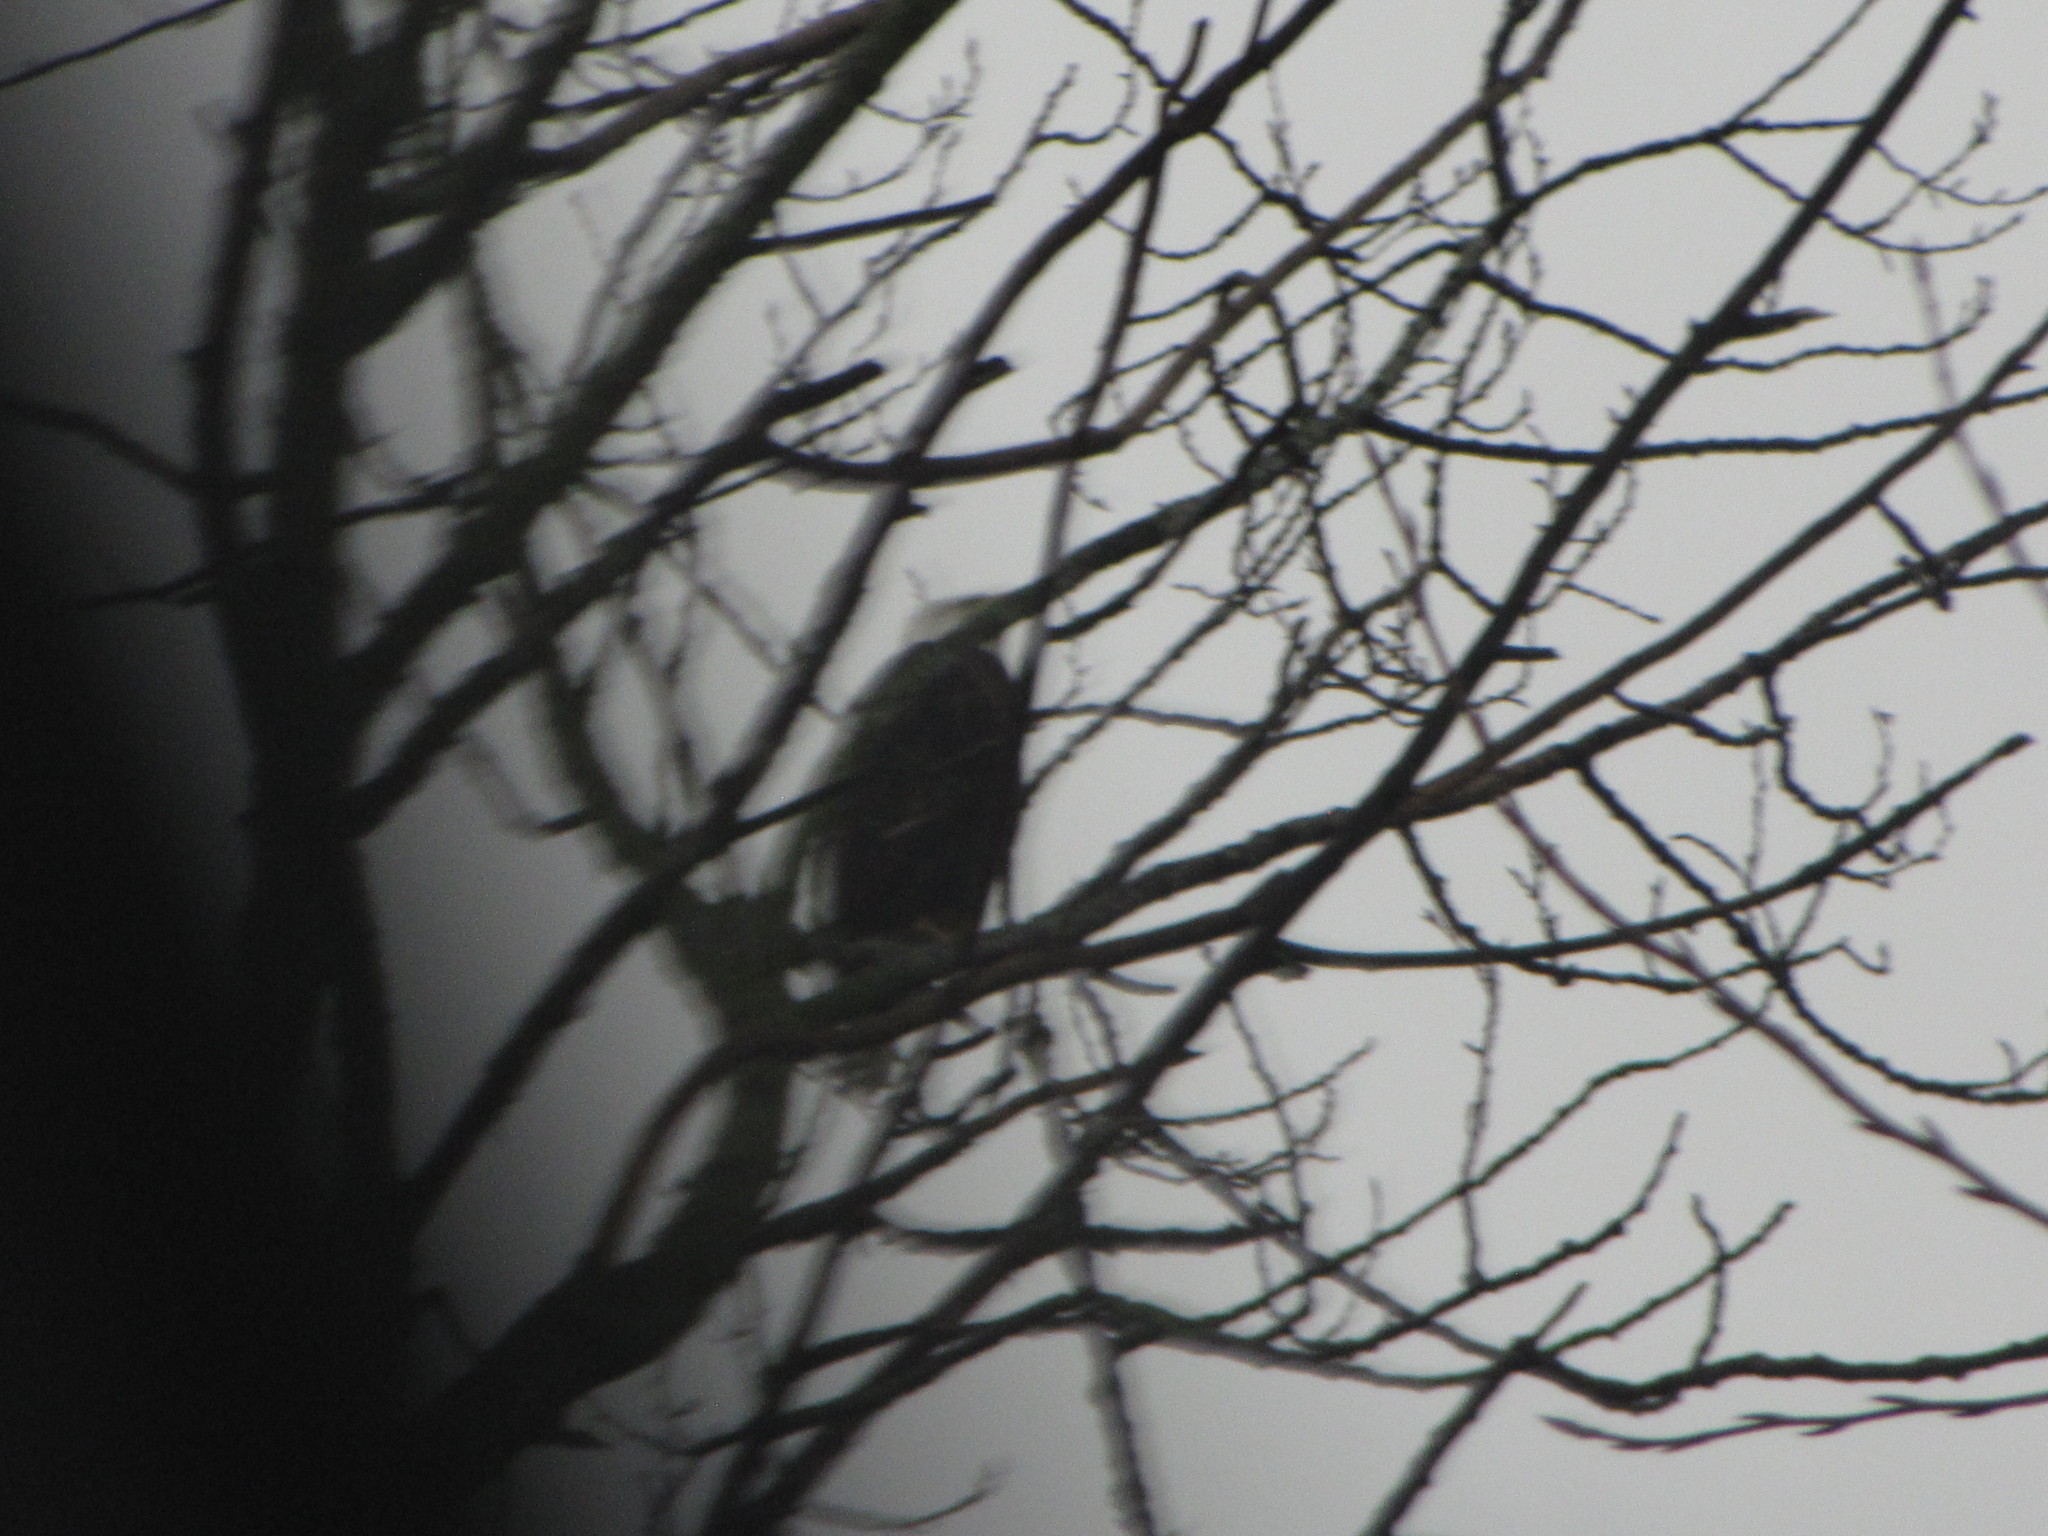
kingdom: Animalia
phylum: Chordata
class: Aves
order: Accipitriformes
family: Accipitridae
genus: Haliaeetus
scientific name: Haliaeetus leucocephalus
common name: Bald eagle
